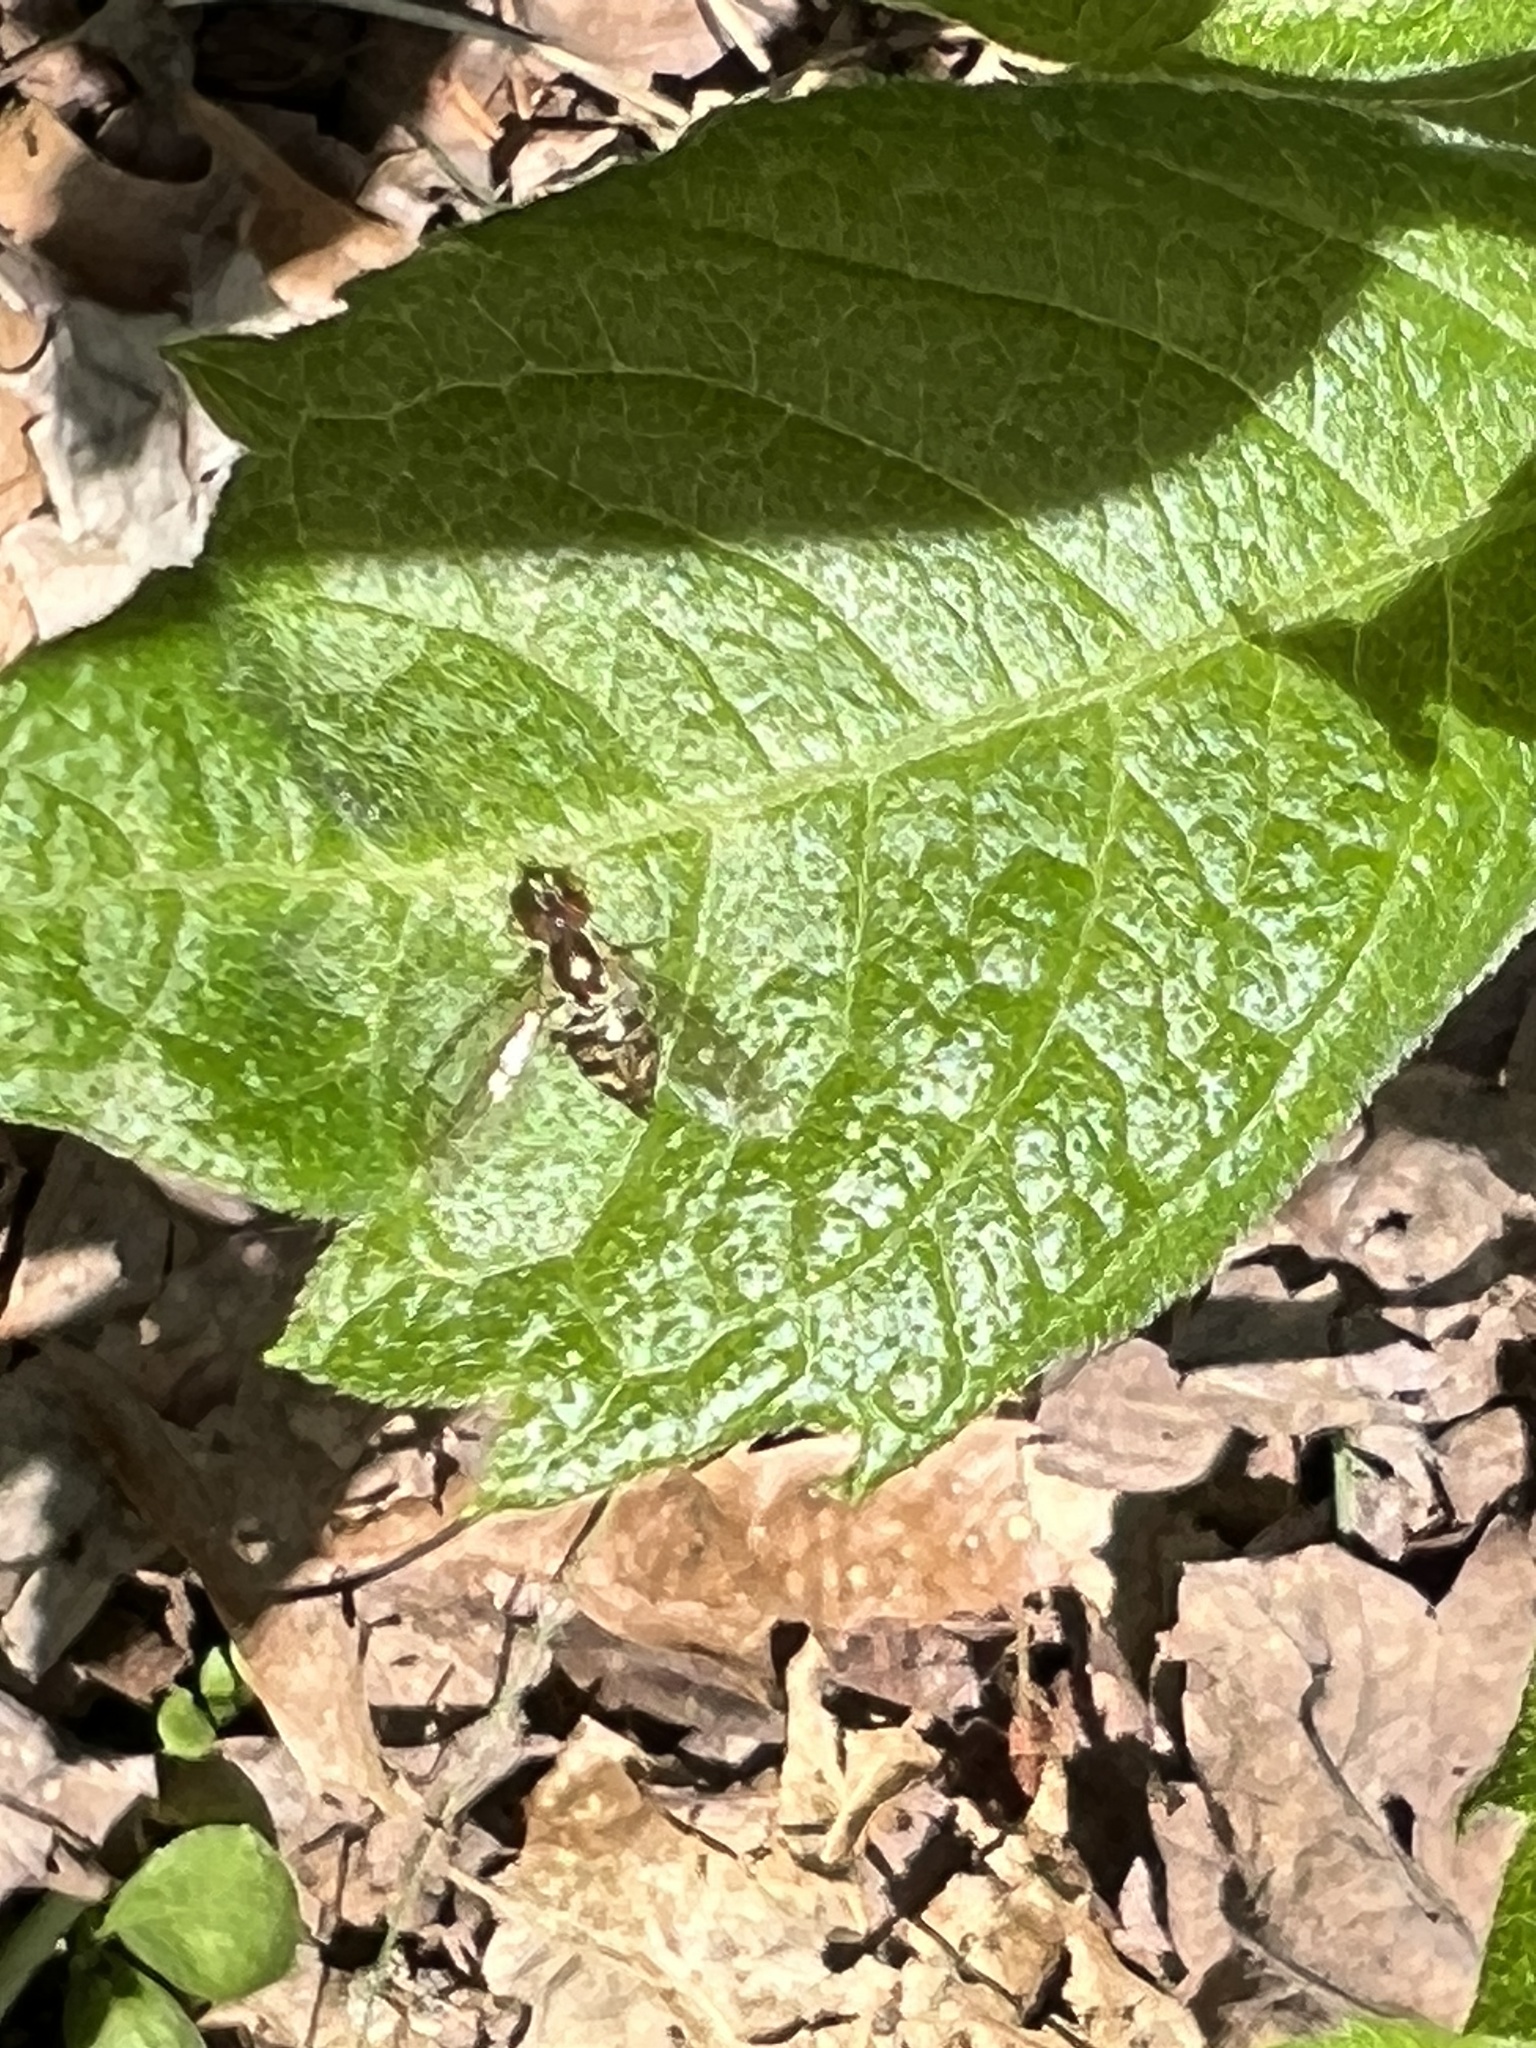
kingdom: Animalia
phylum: Arthropoda
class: Insecta
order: Diptera
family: Syrphidae
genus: Toxomerus
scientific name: Toxomerus geminatus
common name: Eastern calligrapher
